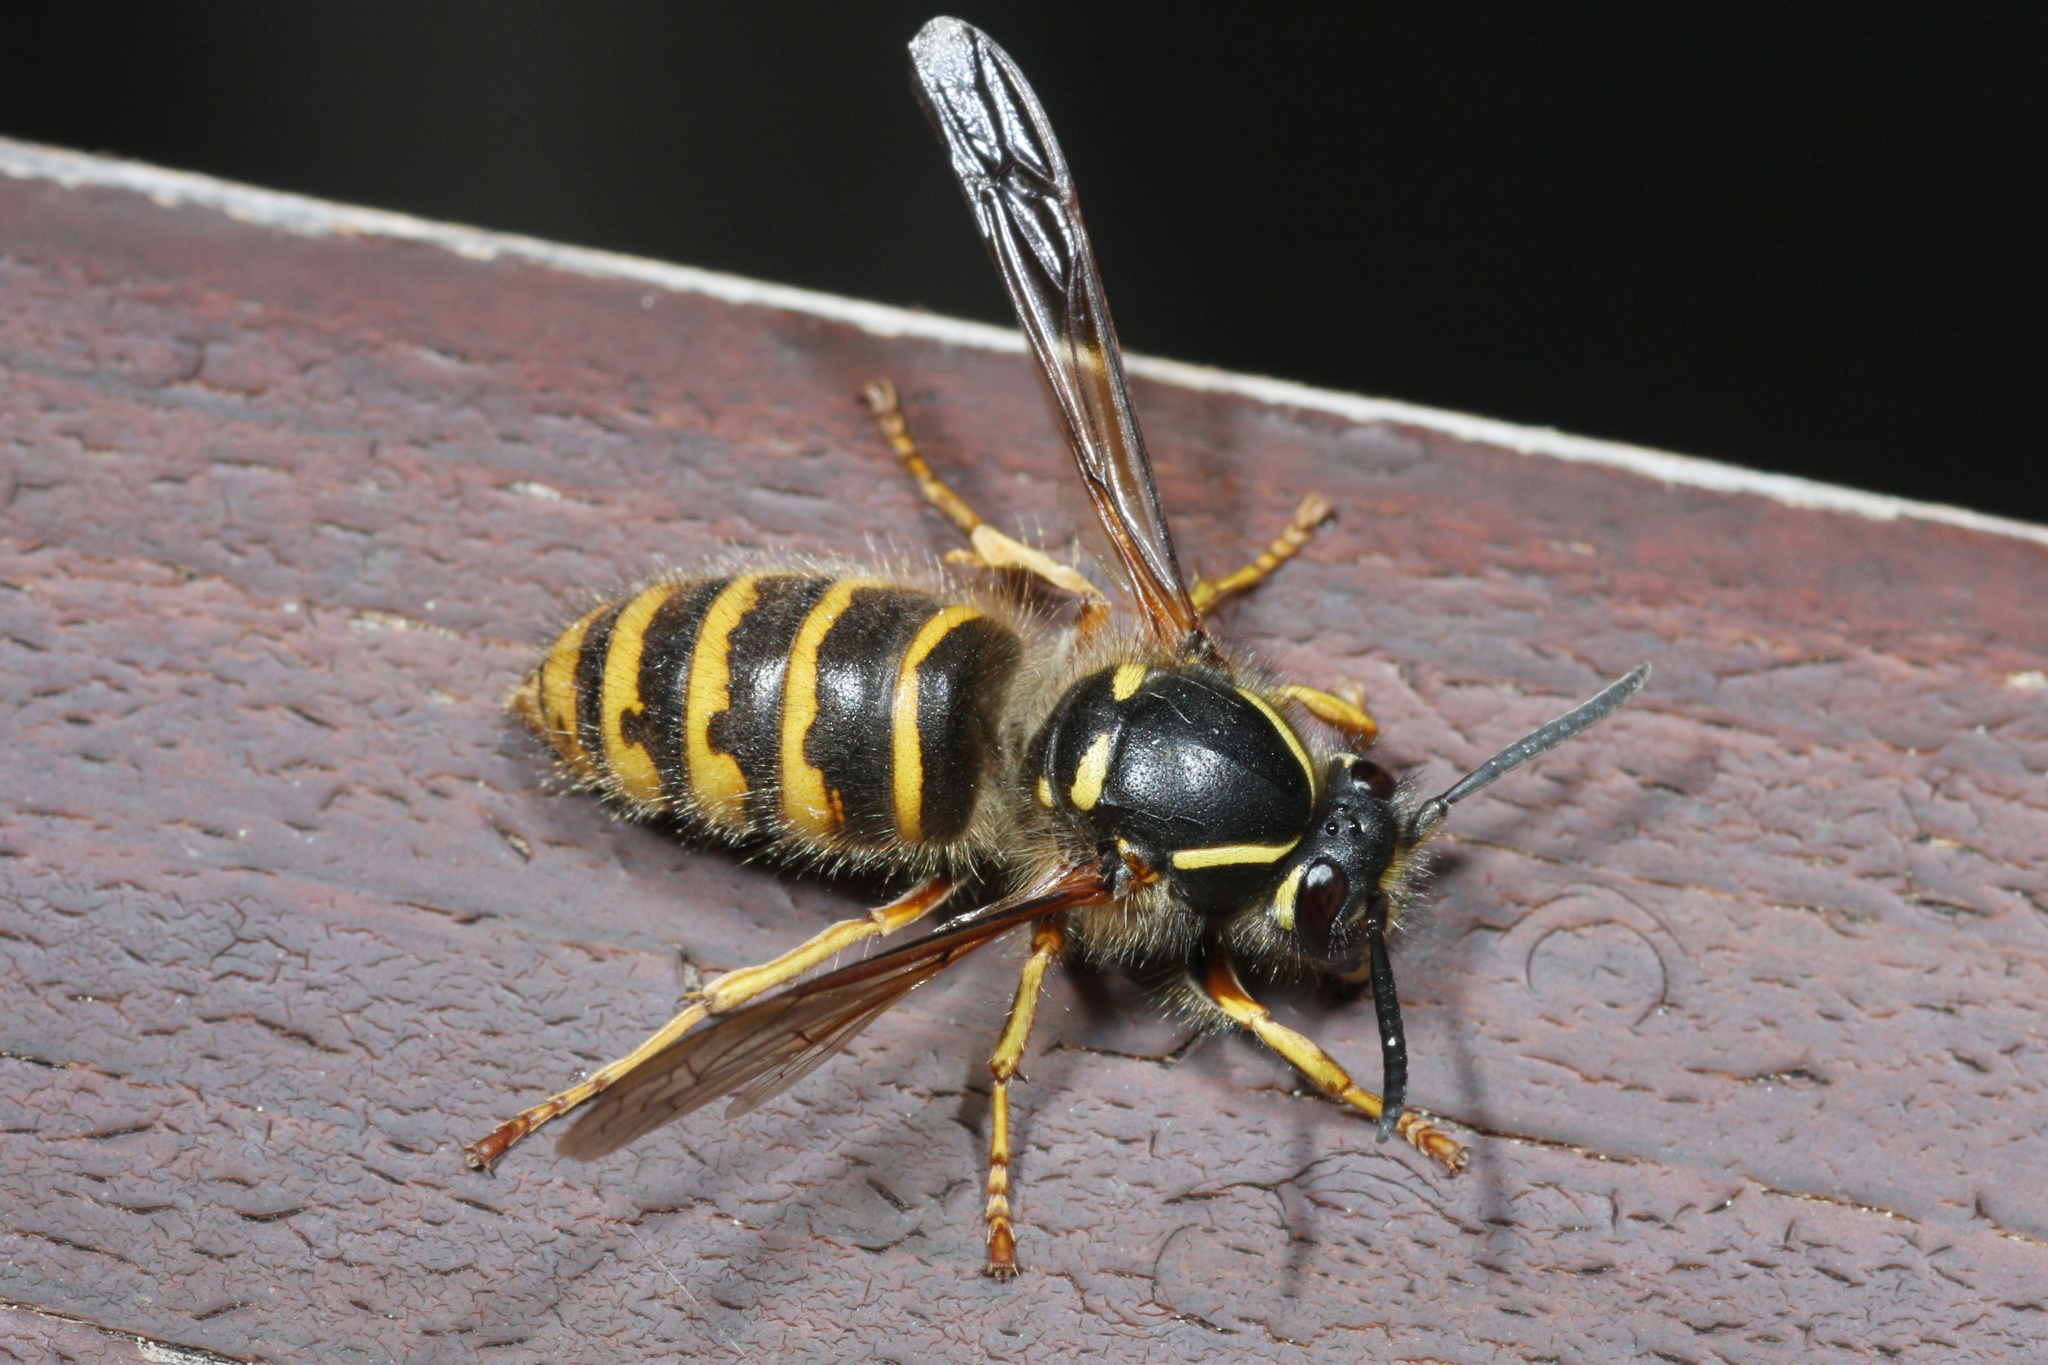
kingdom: Animalia
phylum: Arthropoda
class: Insecta
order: Hymenoptera
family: Vespidae
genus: Dolichovespula
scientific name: Dolichovespula saxonica
